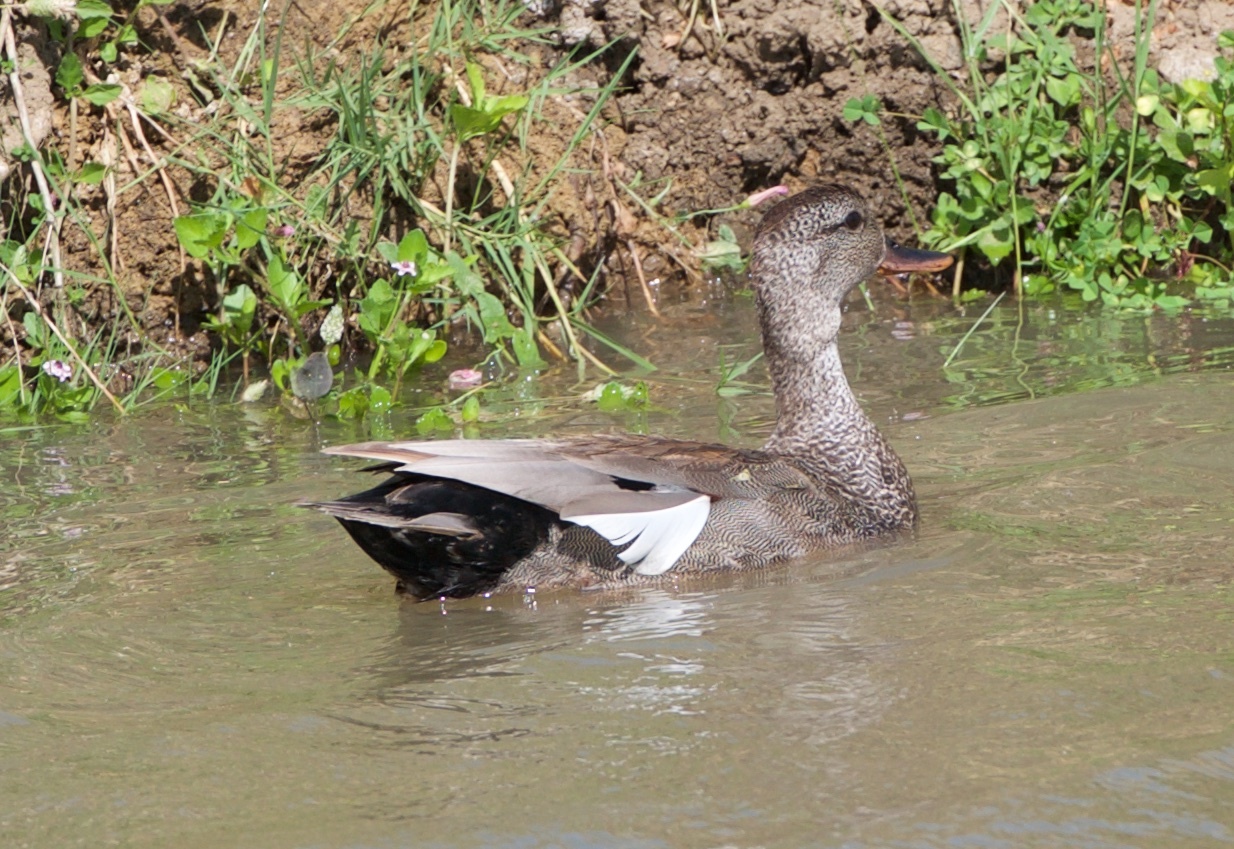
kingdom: Animalia
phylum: Chordata
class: Aves
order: Anseriformes
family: Anatidae
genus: Mareca
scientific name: Mareca strepera
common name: Gadwall
